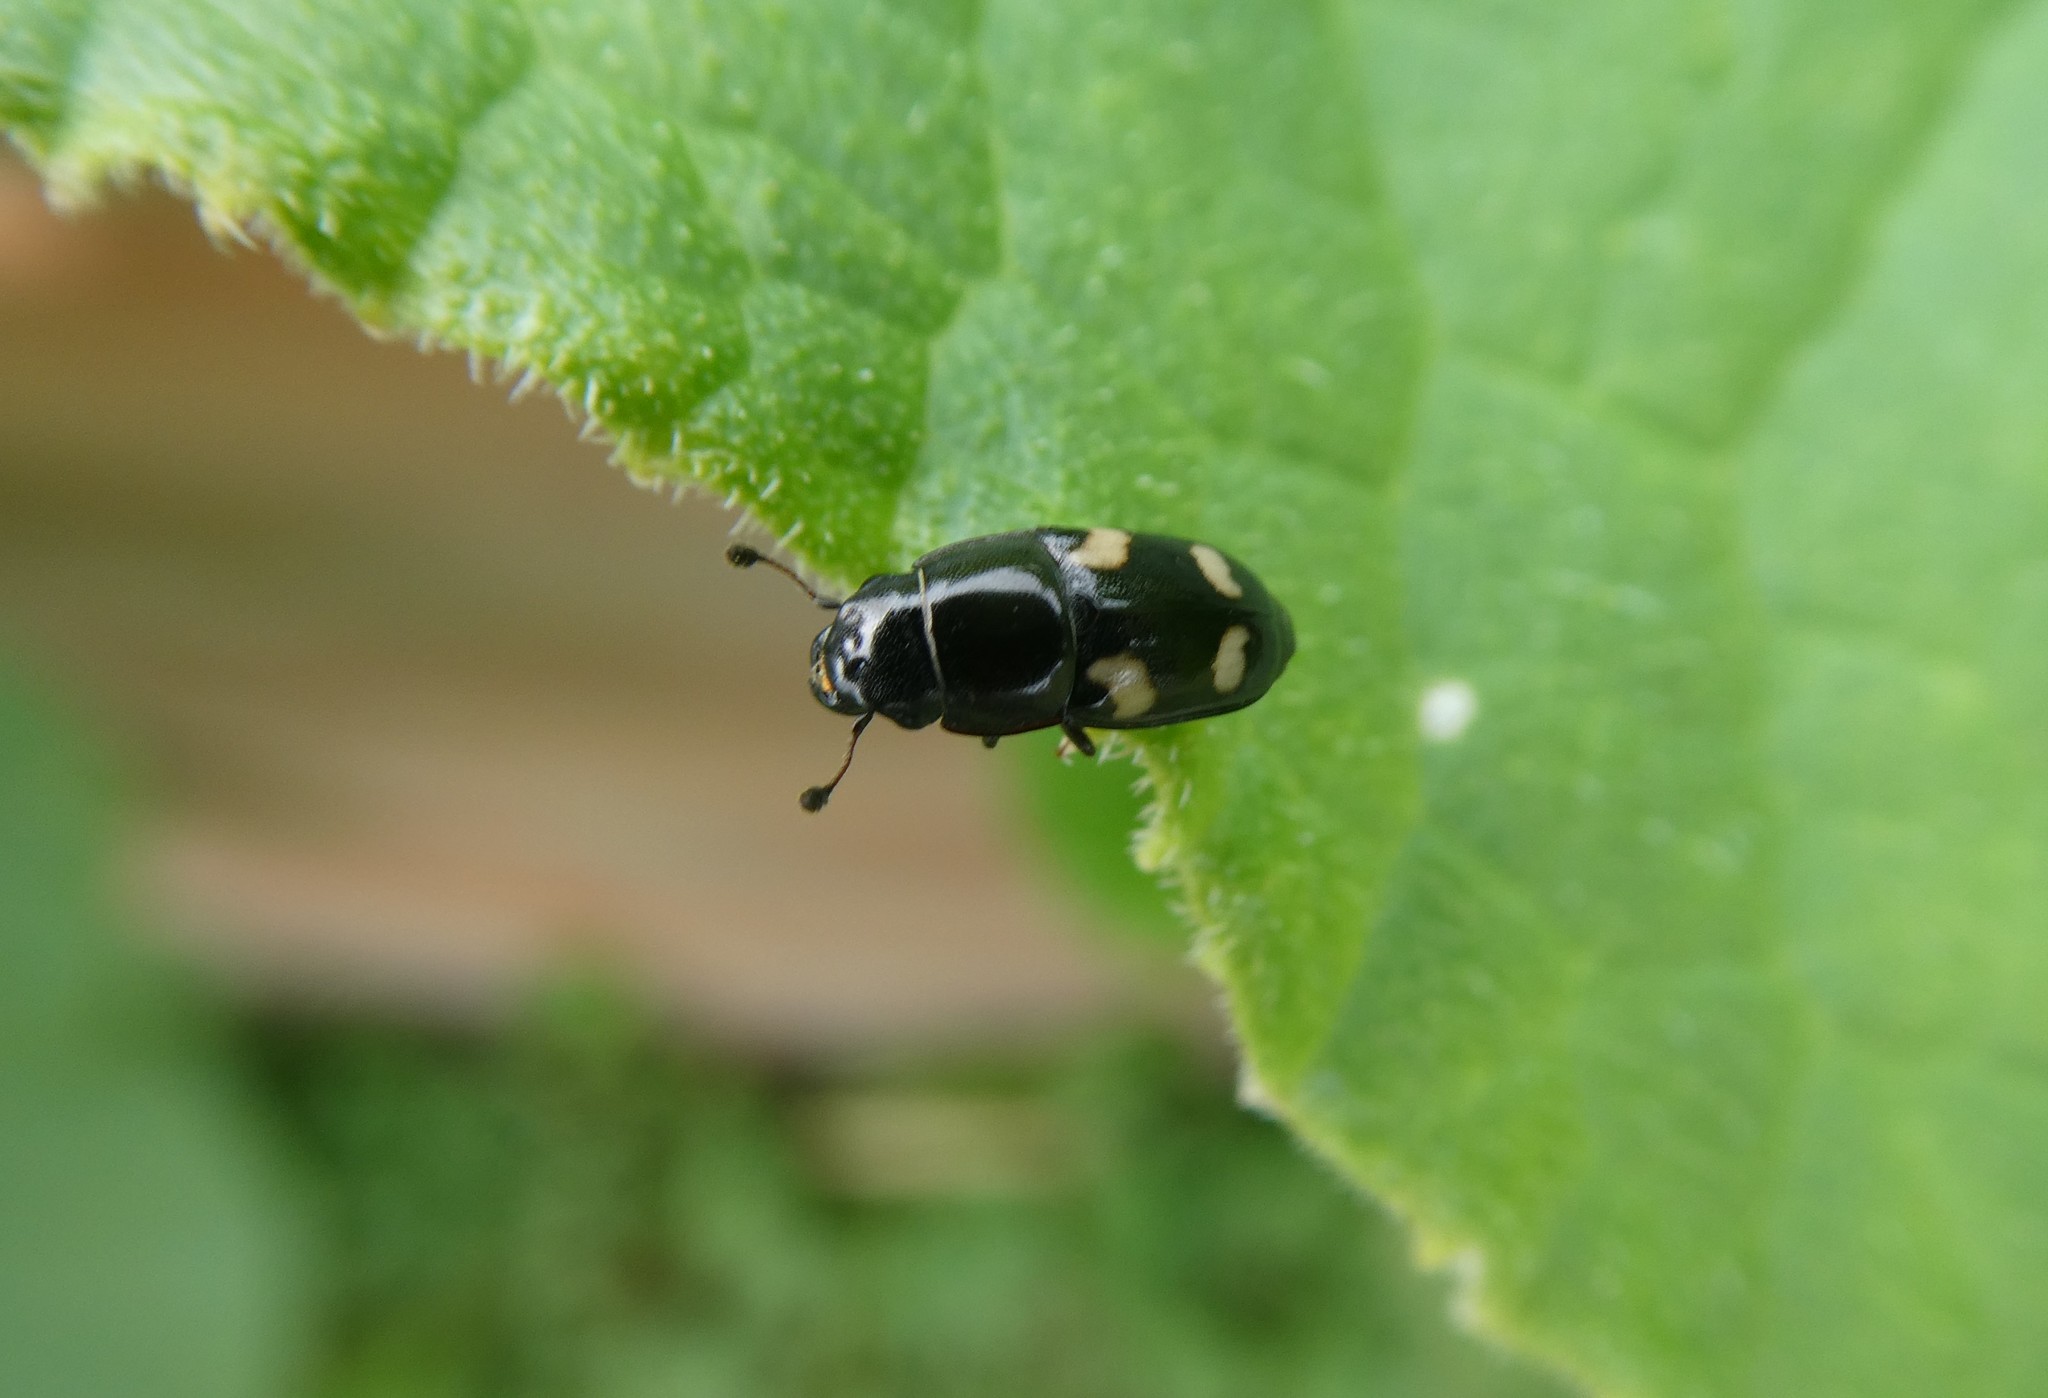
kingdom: Animalia
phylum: Arthropoda
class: Insecta
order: Coleoptera
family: Nitidulidae
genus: Glischrochilus
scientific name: Glischrochilus quadrisignatus
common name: Picnic beetle
